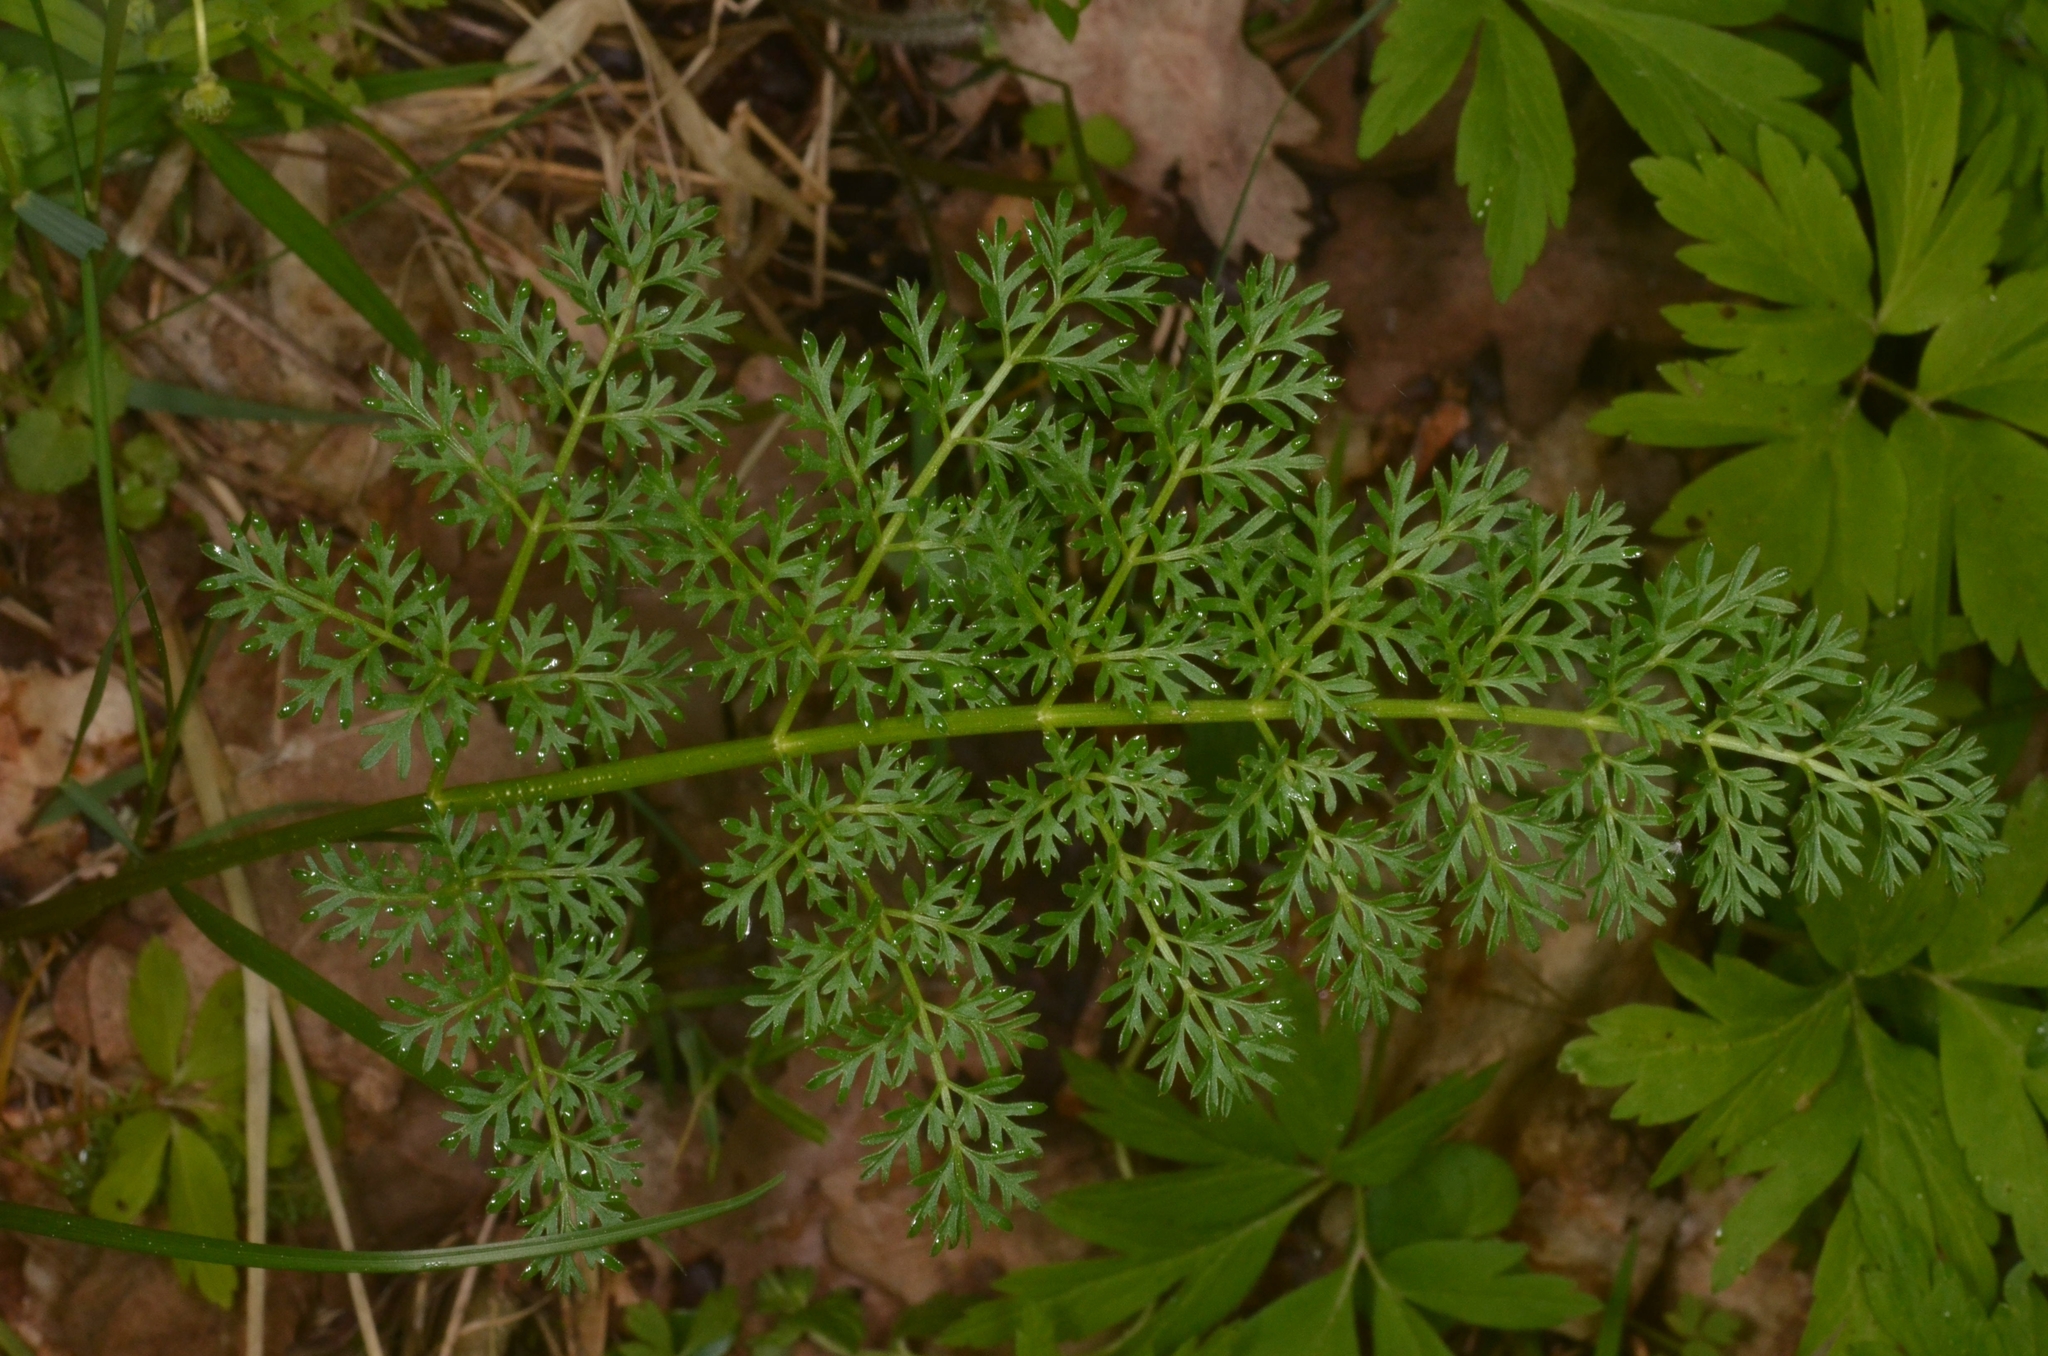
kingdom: Plantae
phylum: Tracheophyta
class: Magnoliopsida
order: Apiales
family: Apiaceae
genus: Selinum
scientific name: Selinum carvifolia
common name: Cambridge milk-parsley
